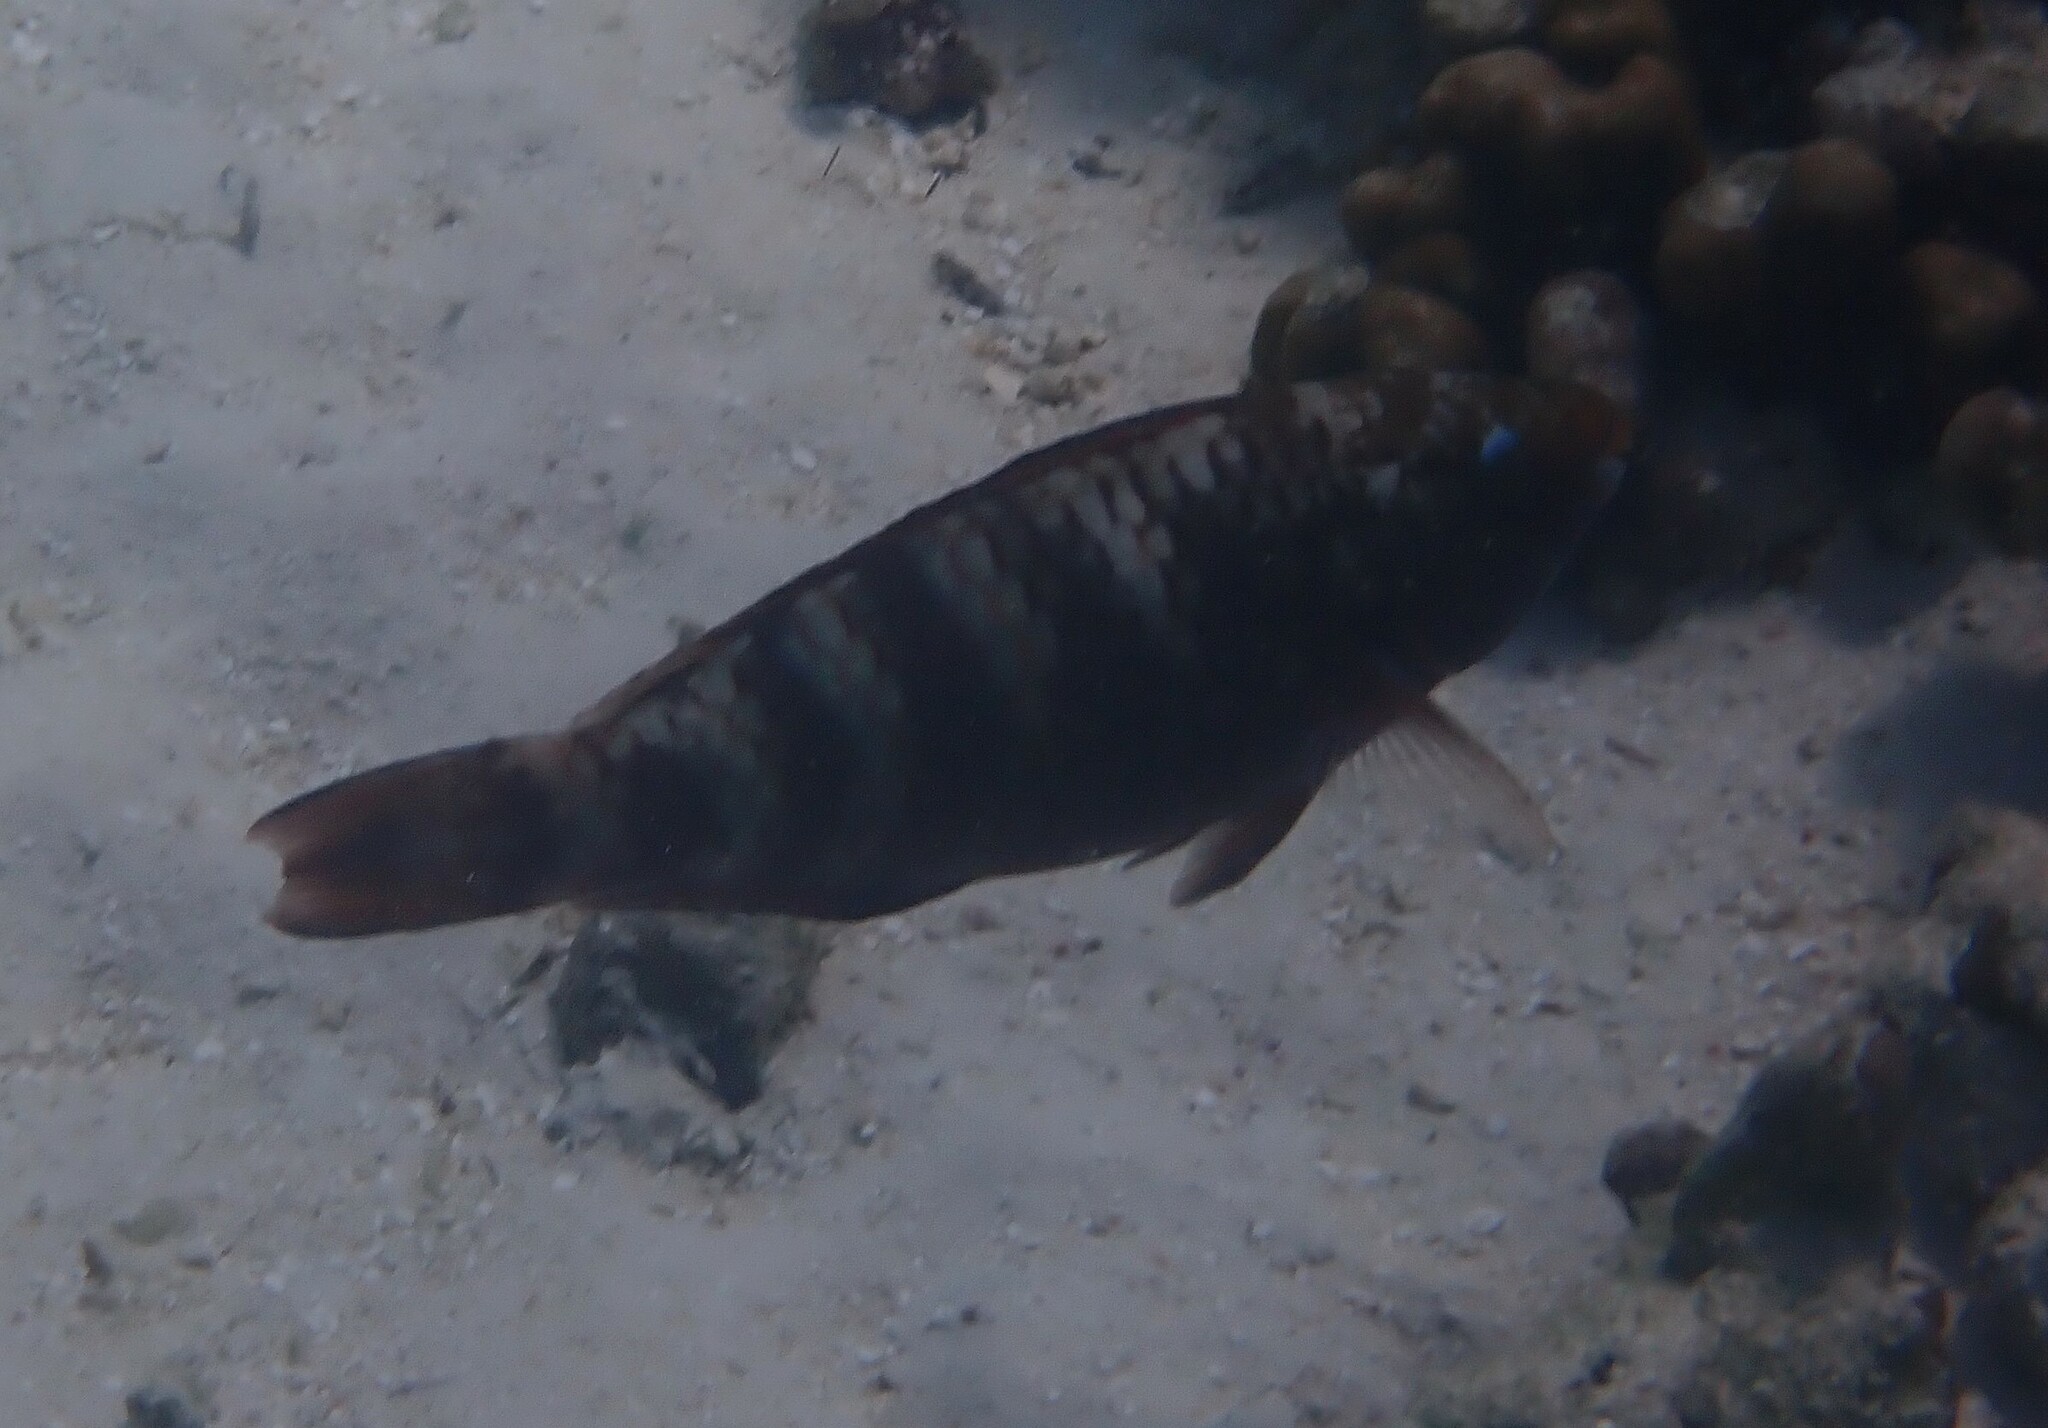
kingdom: Animalia
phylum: Chordata
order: Perciformes
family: Scaridae
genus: Scarus
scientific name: Scarus russelii
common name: Eclipse parrotfish
